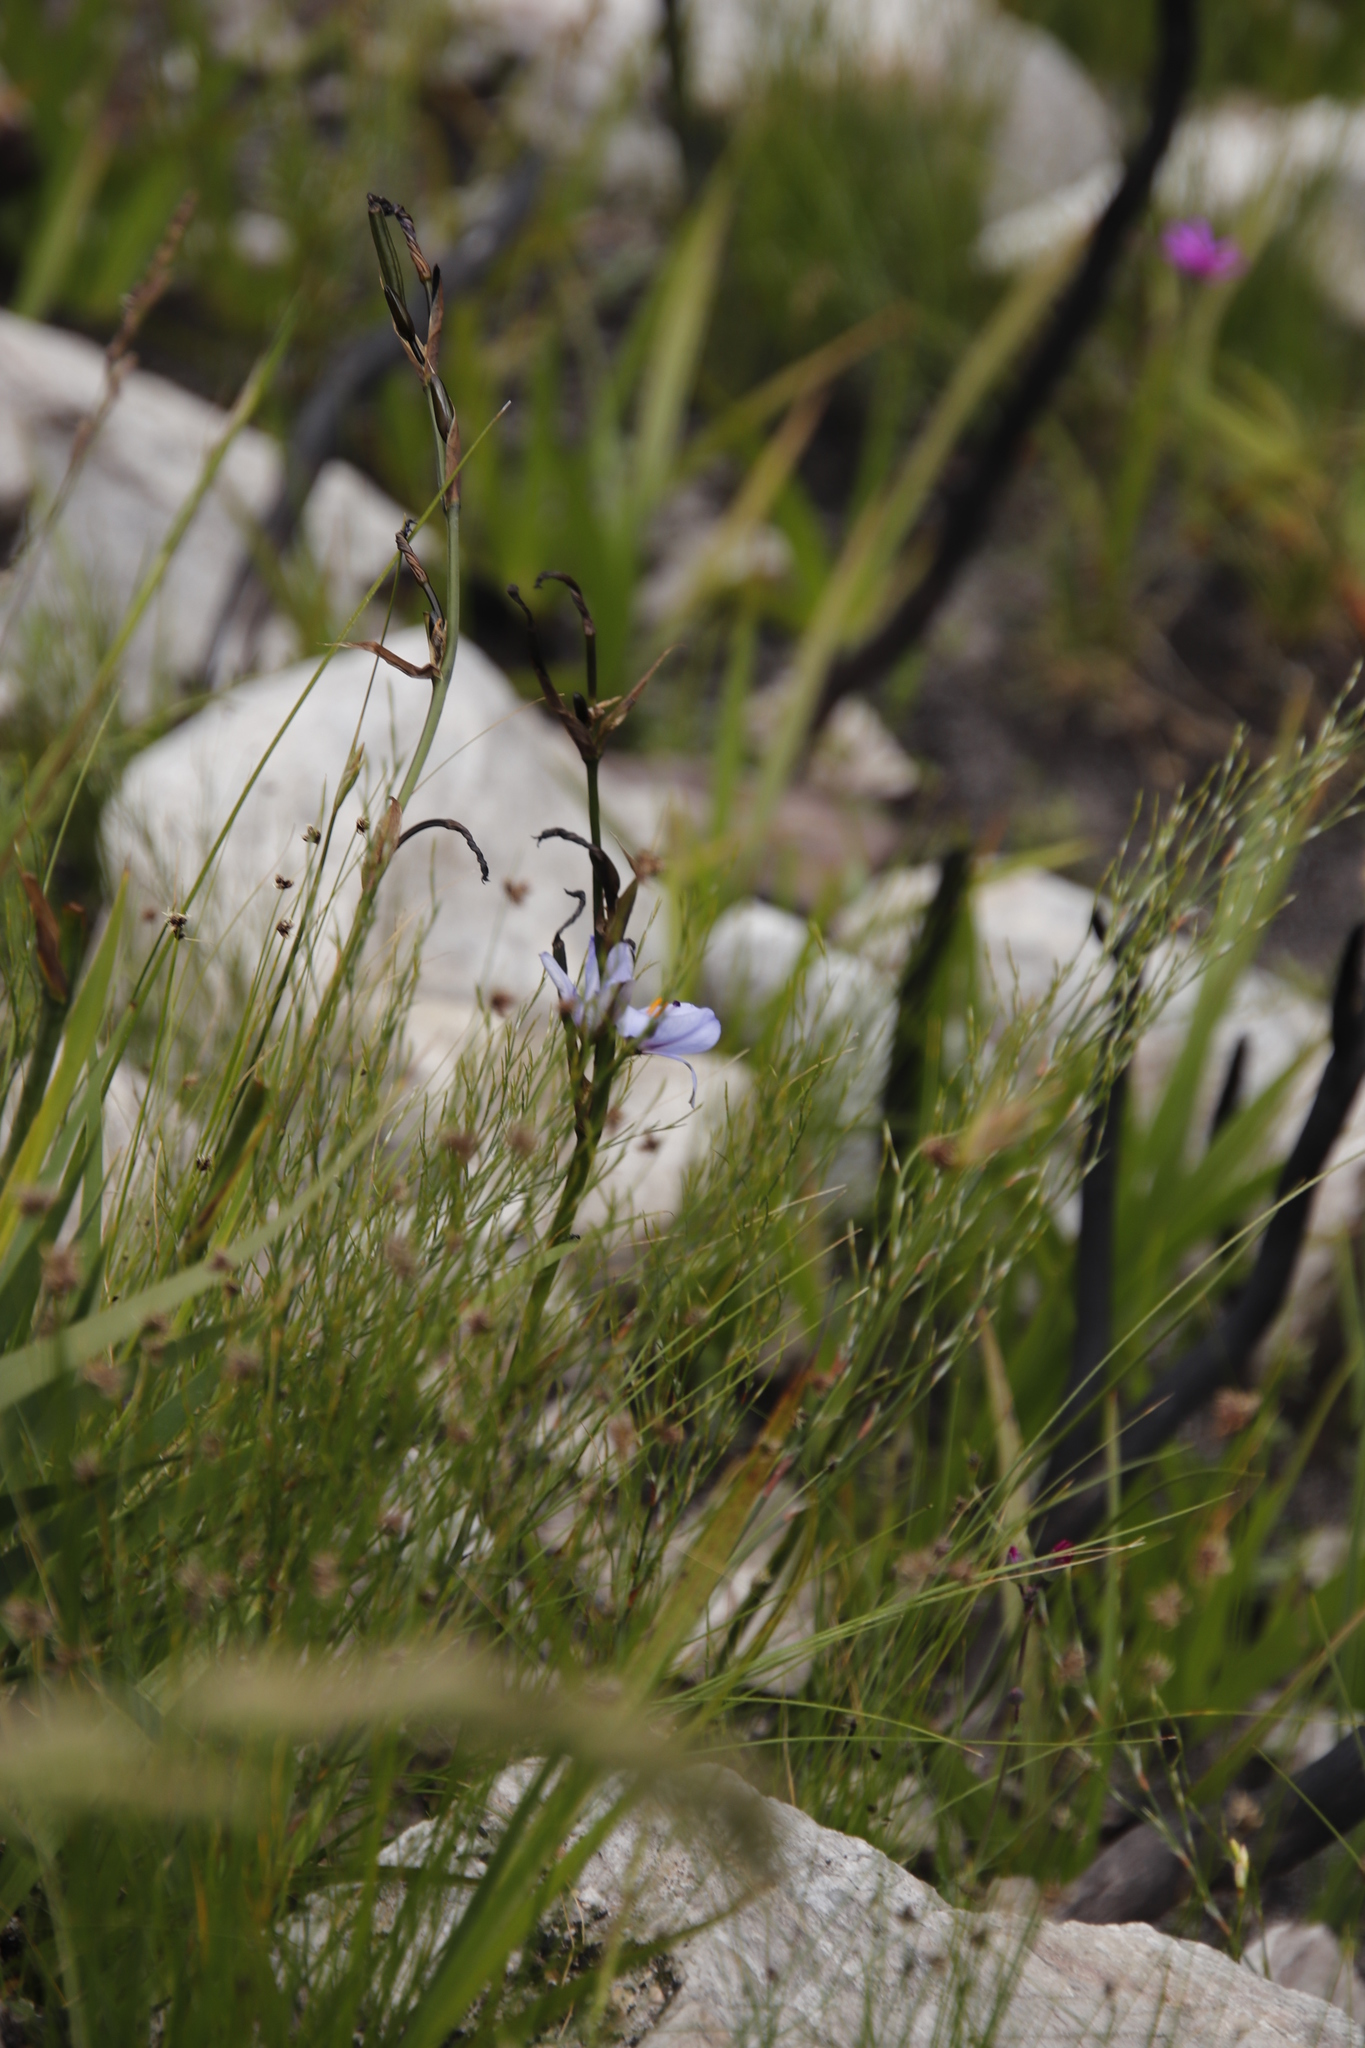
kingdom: Plantae
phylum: Tracheophyta
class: Liliopsida
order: Asparagales
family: Iridaceae
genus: Aristea
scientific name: Aristea spiralis
